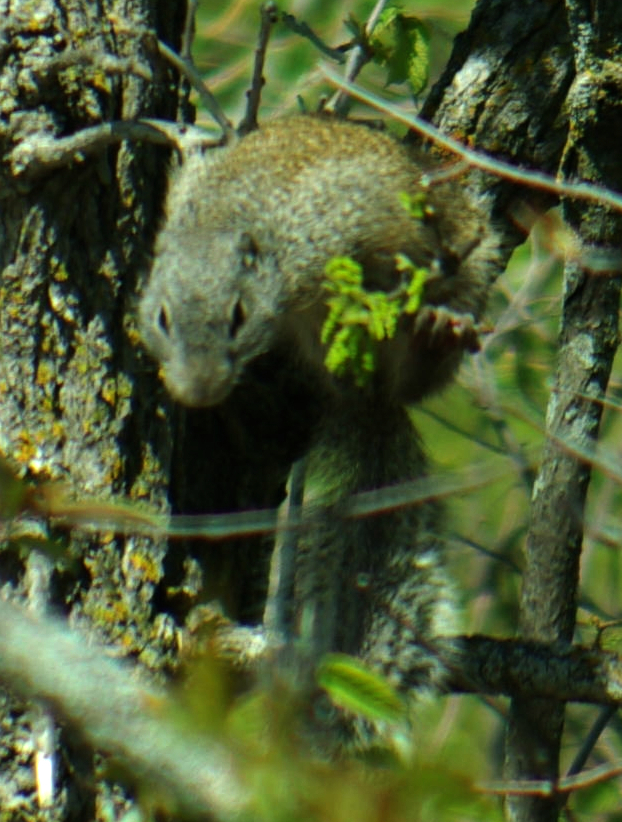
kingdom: Animalia
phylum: Chordata
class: Mammalia
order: Rodentia
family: Sciuridae
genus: Poliocitellus
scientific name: Poliocitellus franklinii
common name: Franklin's ground squirrel
